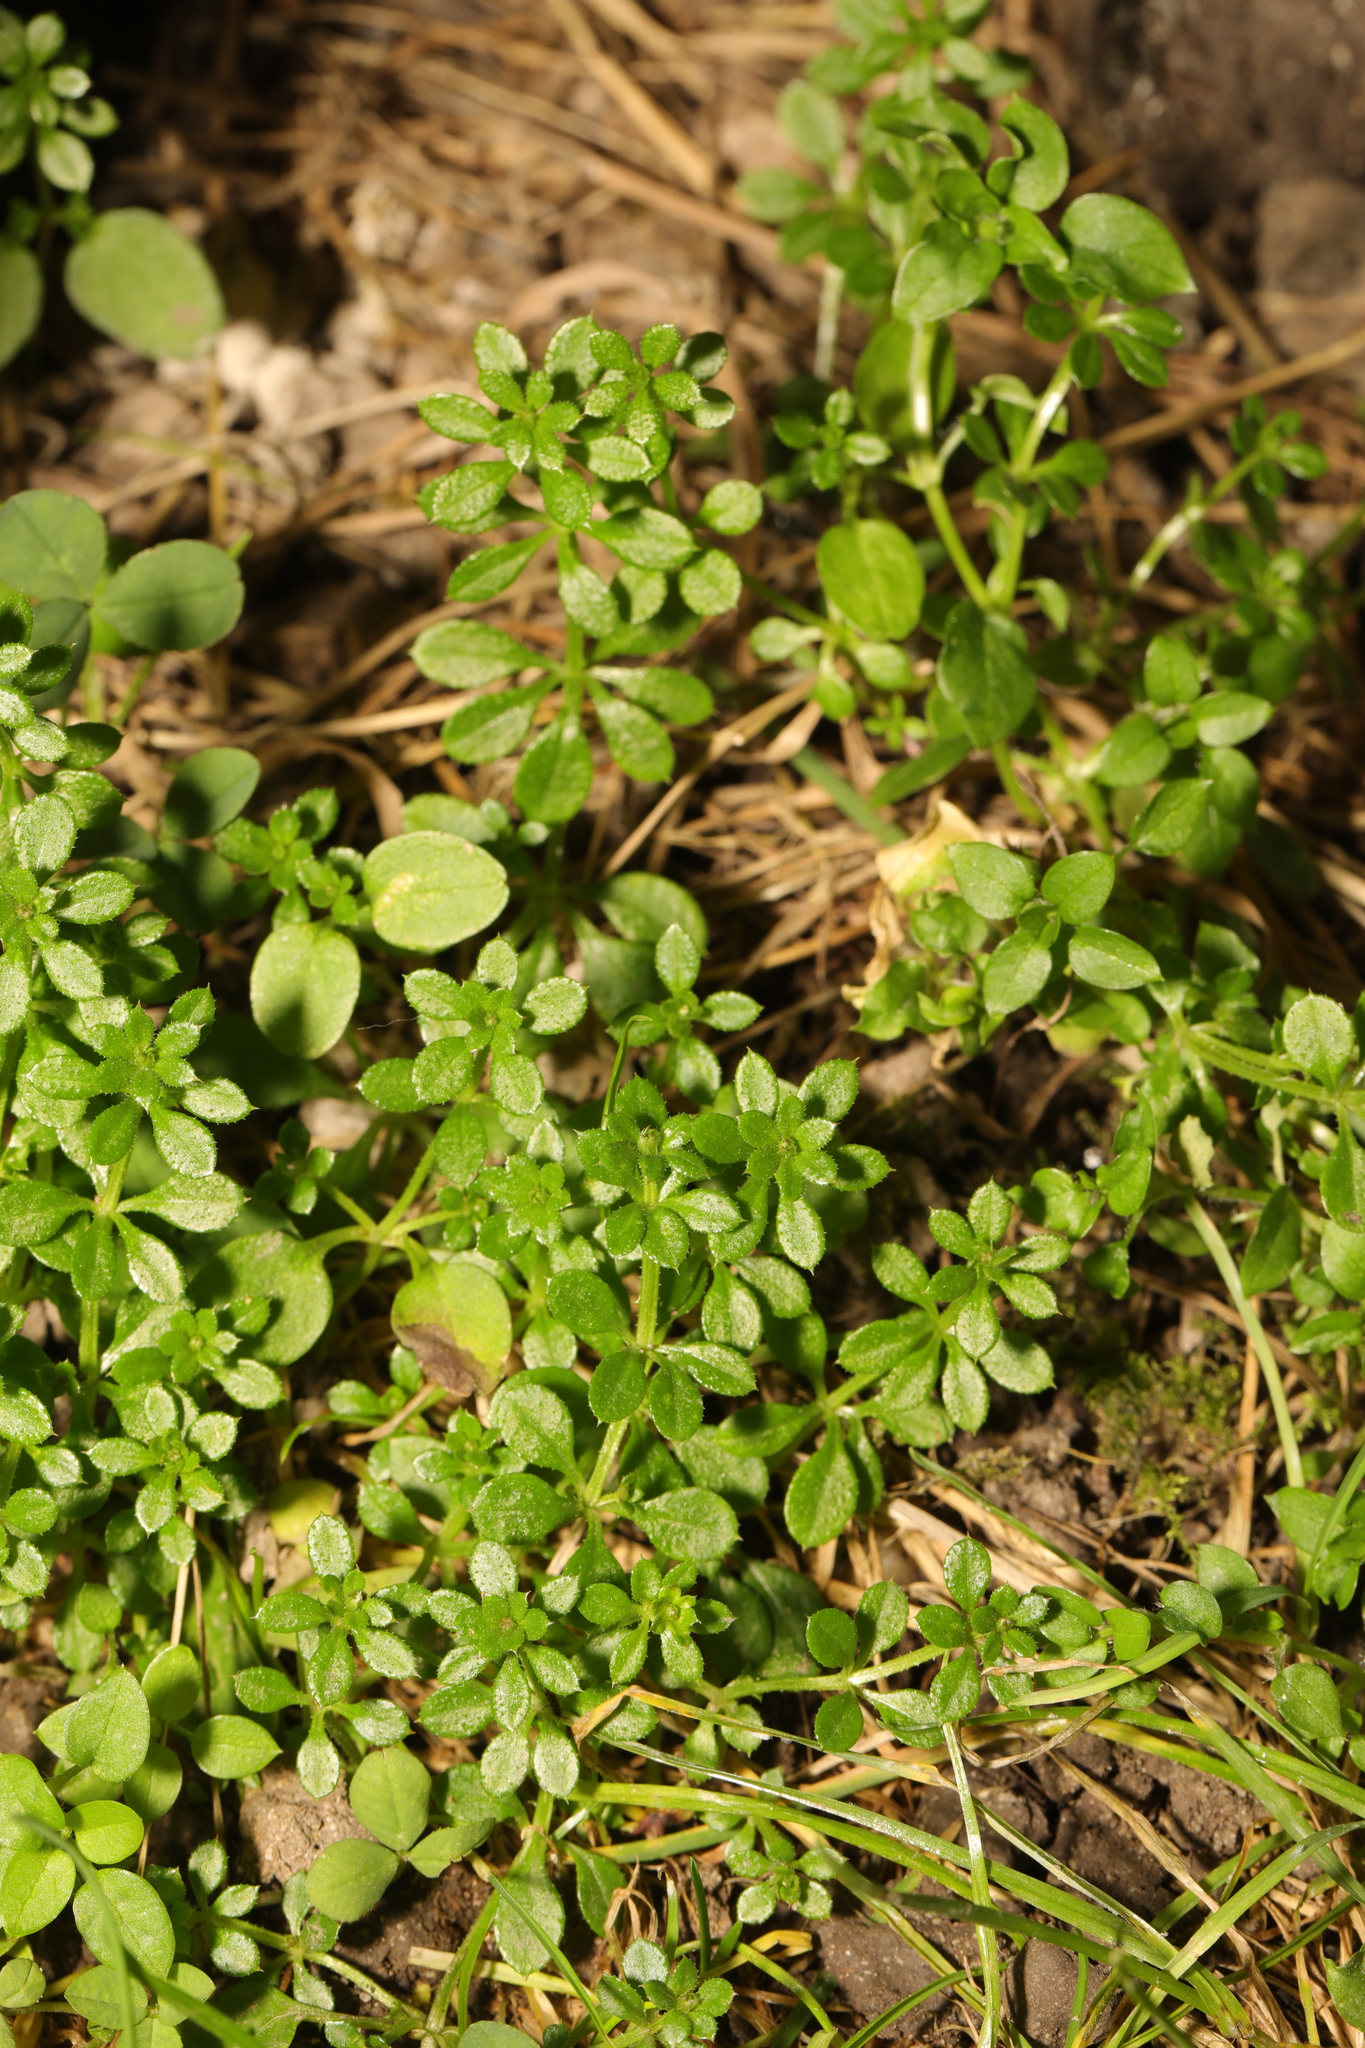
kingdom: Plantae
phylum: Tracheophyta
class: Magnoliopsida
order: Gentianales
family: Rubiaceae
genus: Galium
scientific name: Galium aparine
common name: Cleavers
